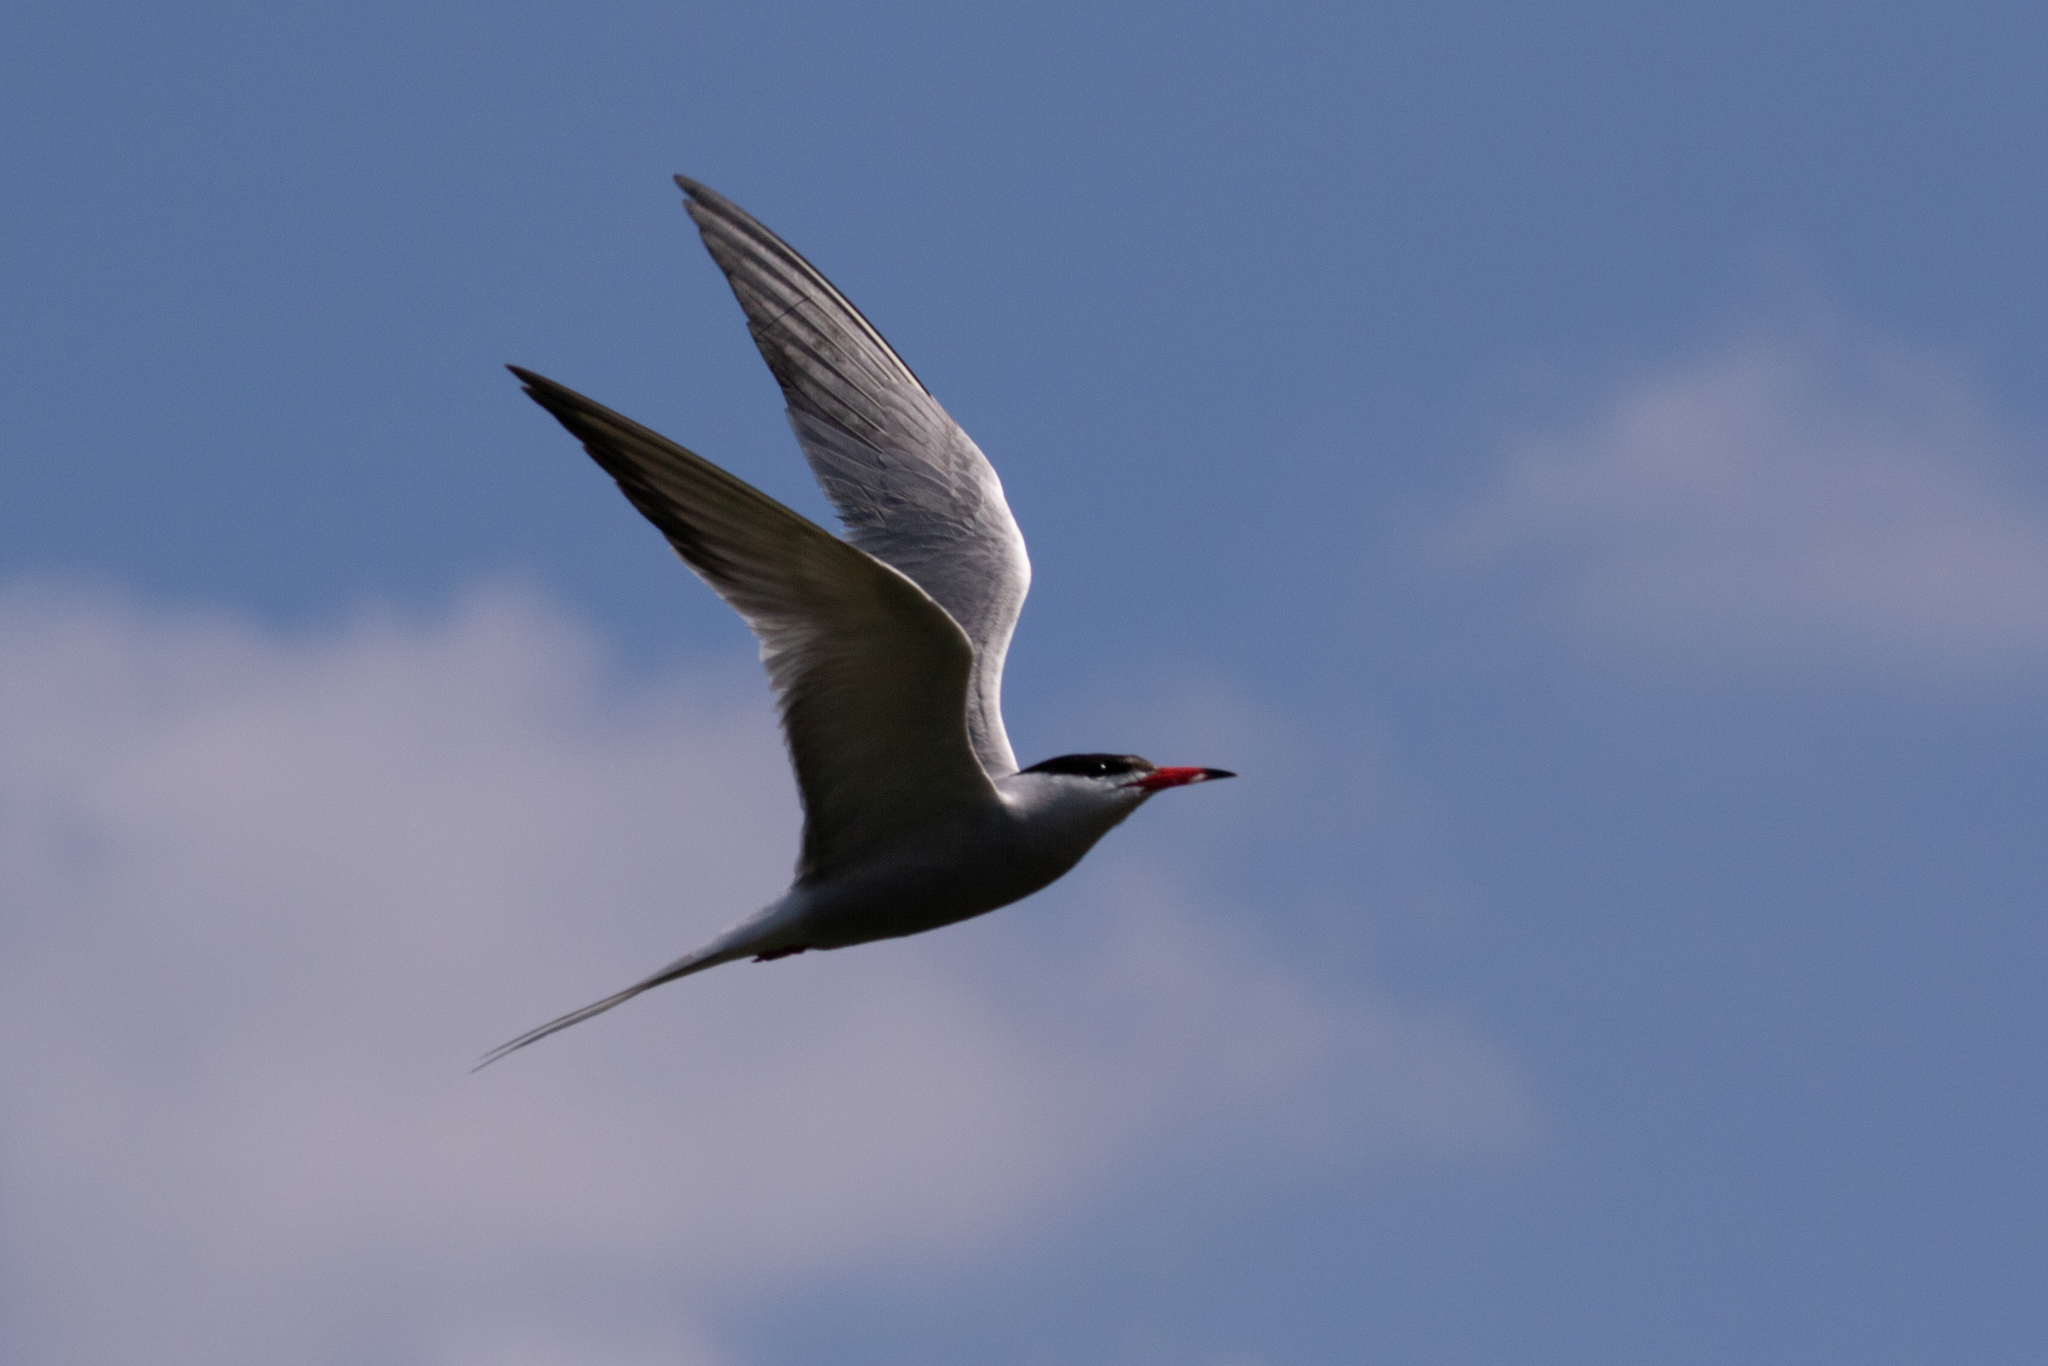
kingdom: Animalia
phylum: Chordata
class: Aves
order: Charadriiformes
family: Laridae
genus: Sterna
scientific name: Sterna hirundo
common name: Common tern
